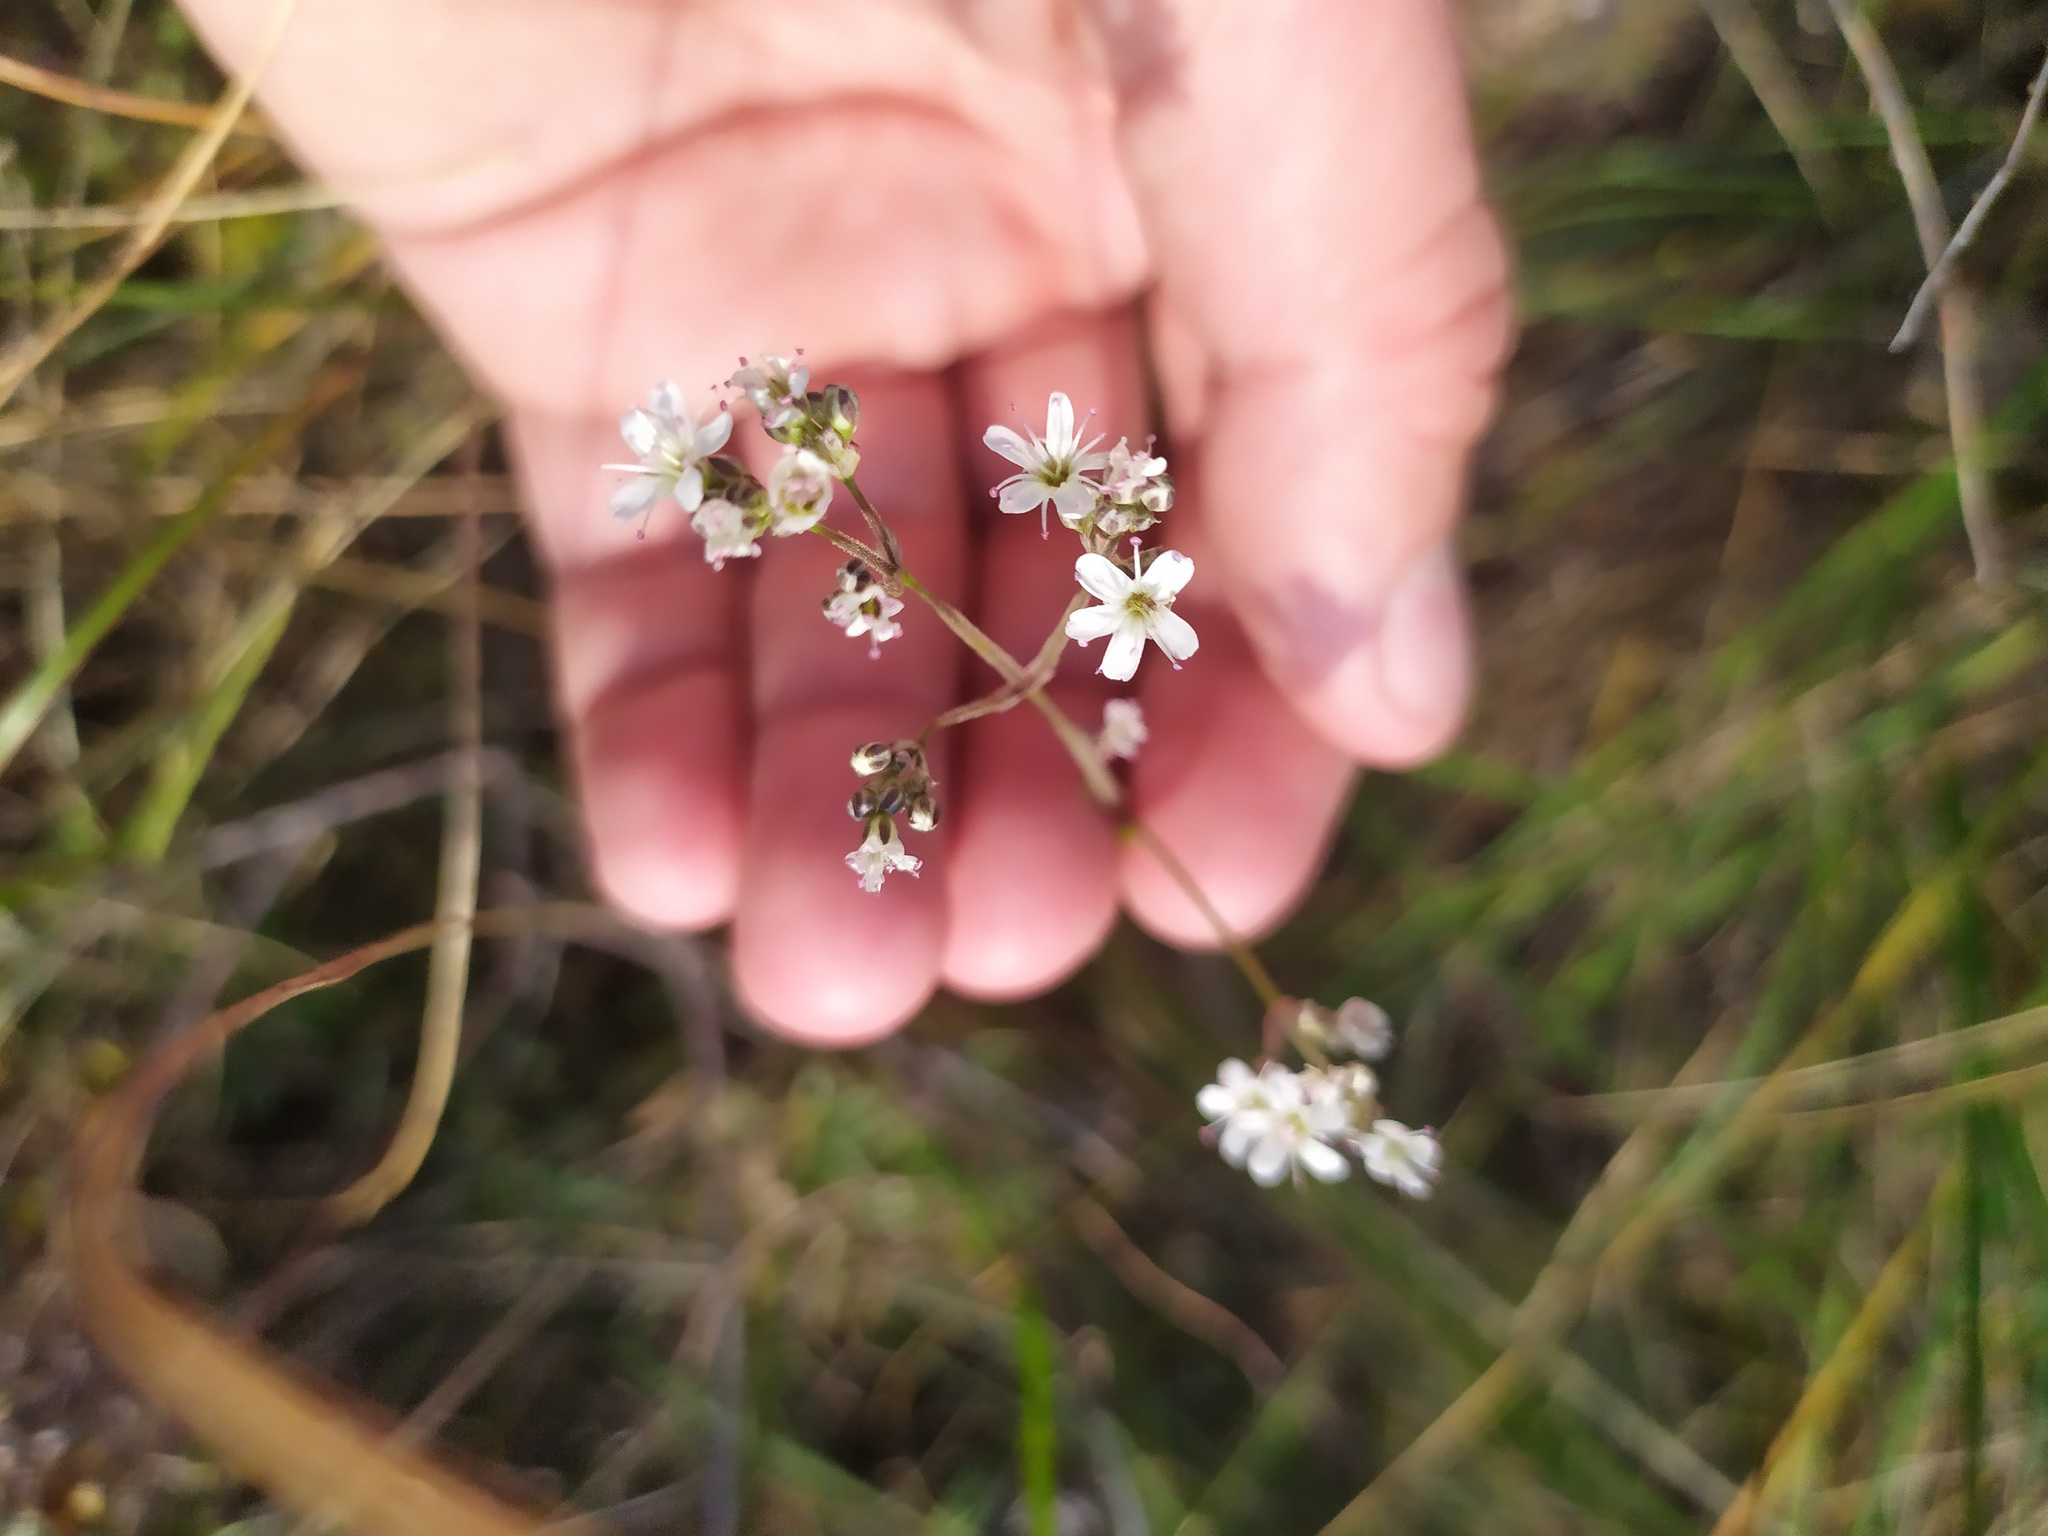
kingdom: Plantae
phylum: Tracheophyta
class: Magnoliopsida
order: Caryophyllales
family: Caryophyllaceae
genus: Gypsophila
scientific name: Gypsophila altissima
